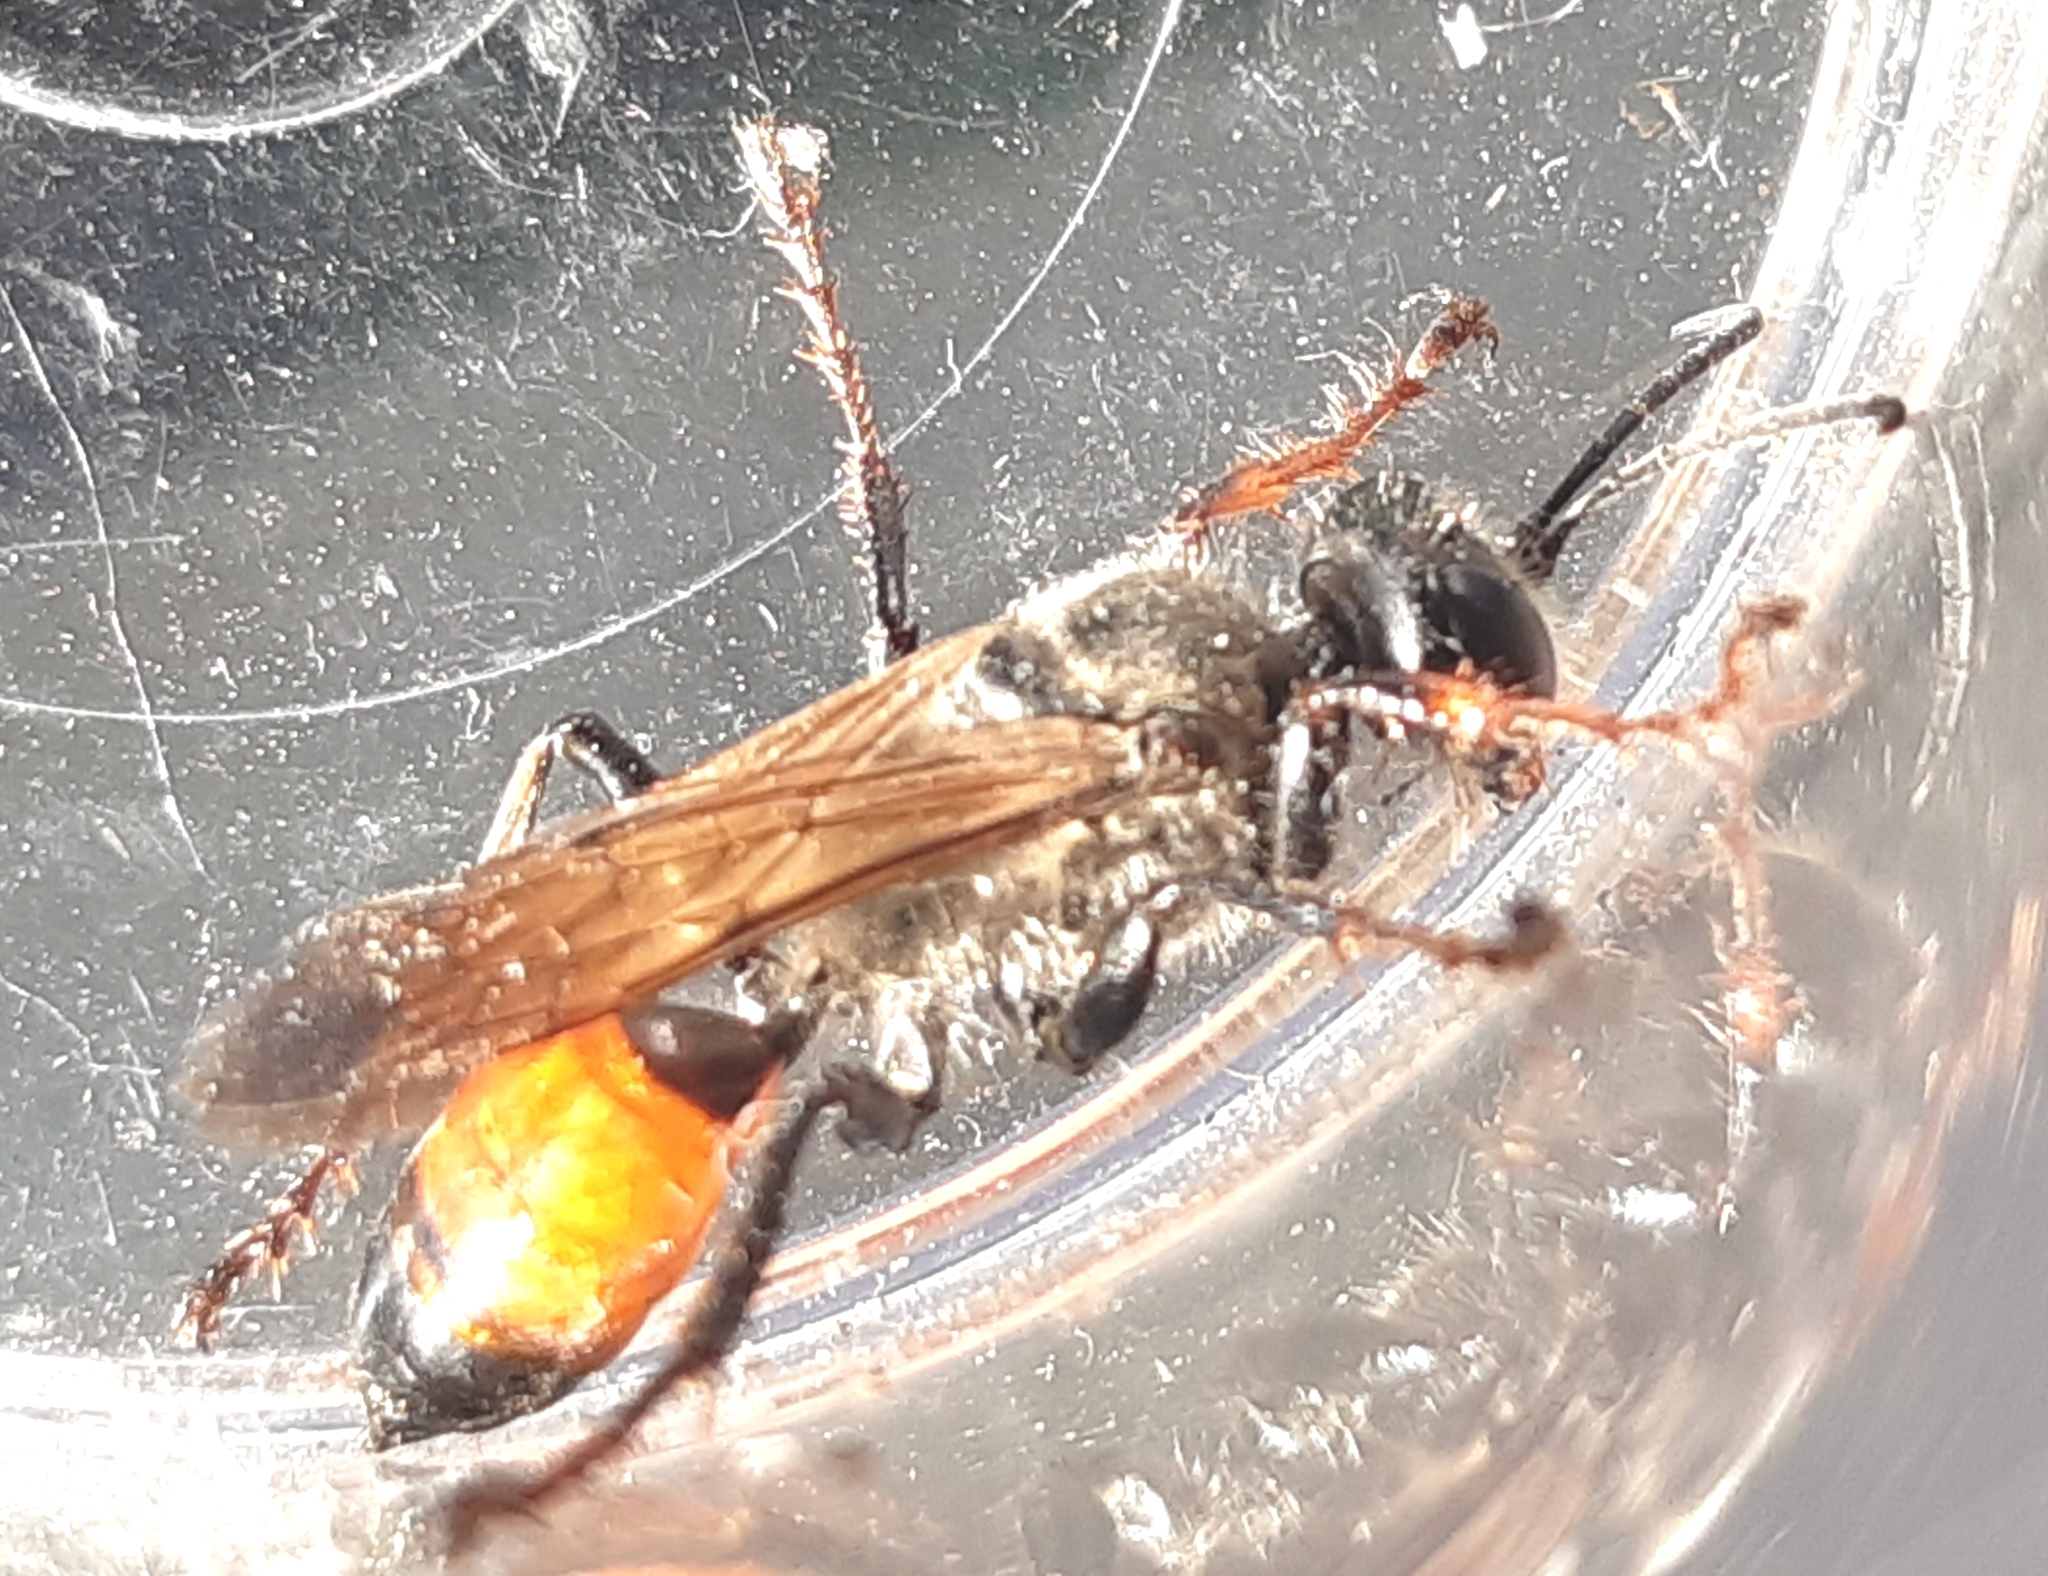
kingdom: Animalia
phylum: Arthropoda
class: Insecta
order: Hymenoptera
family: Sphecidae
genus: Sphex
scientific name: Sphex funerarius
